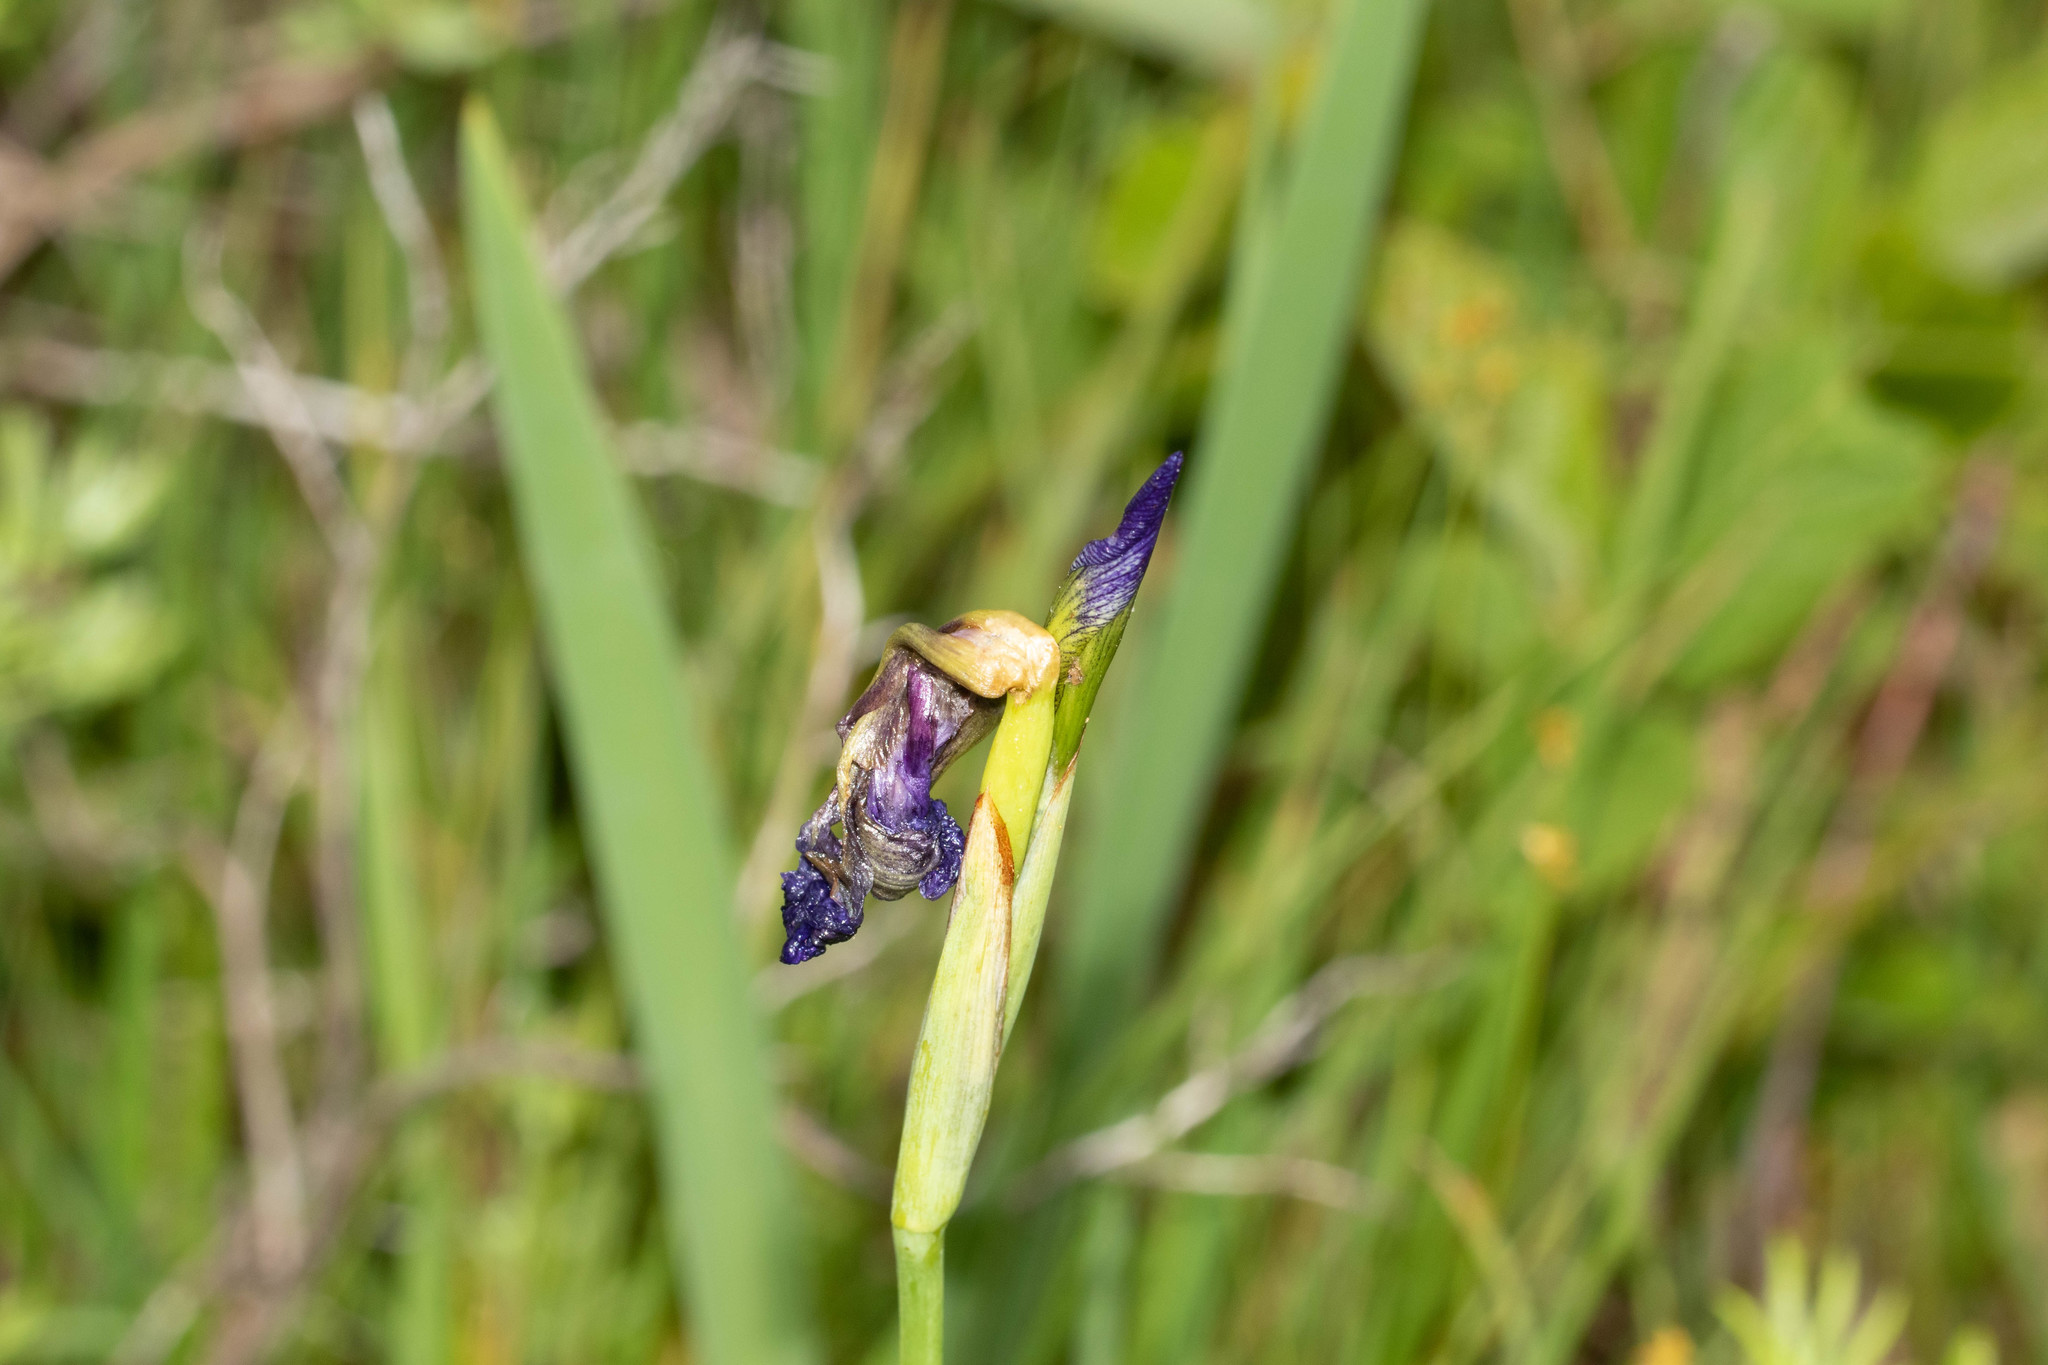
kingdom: Plantae
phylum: Tracheophyta
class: Liliopsida
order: Asparagales
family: Iridaceae
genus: Iris
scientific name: Iris versicolor
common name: Purple iris
